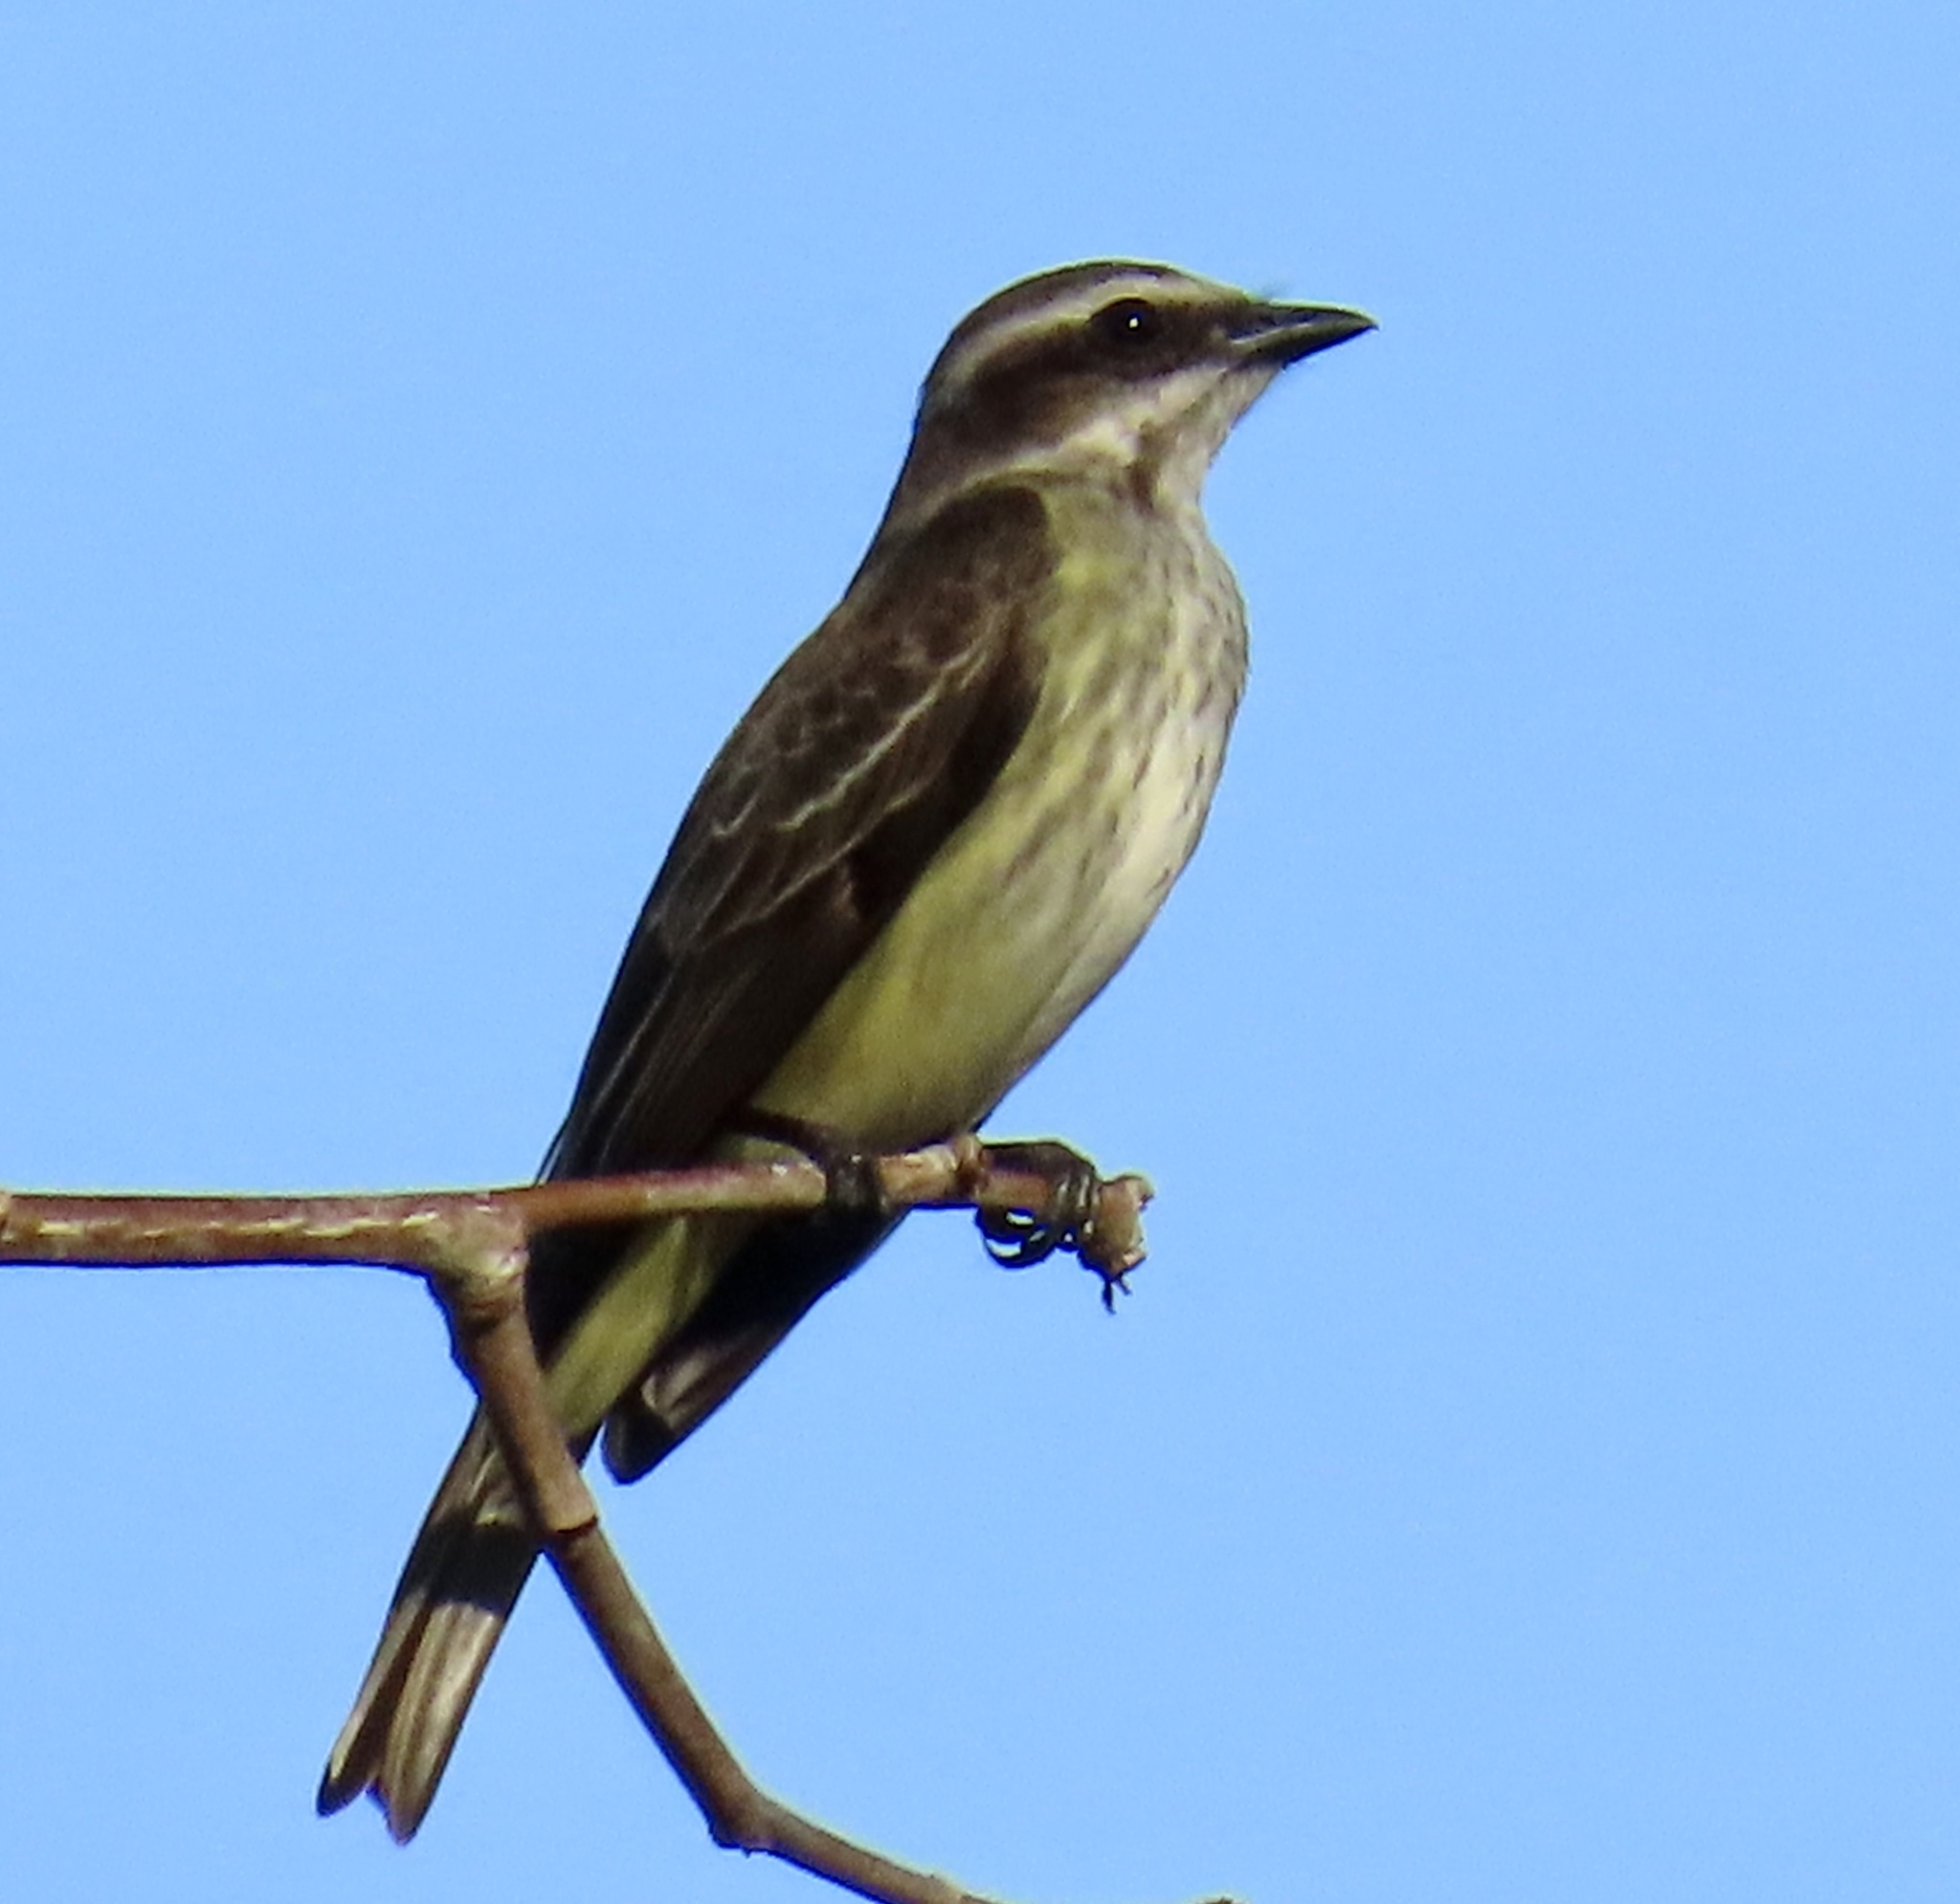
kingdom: Animalia
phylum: Chordata
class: Aves
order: Passeriformes
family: Tyrannidae
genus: Legatus
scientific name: Legatus leucophaius
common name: Piratic flycatcher
